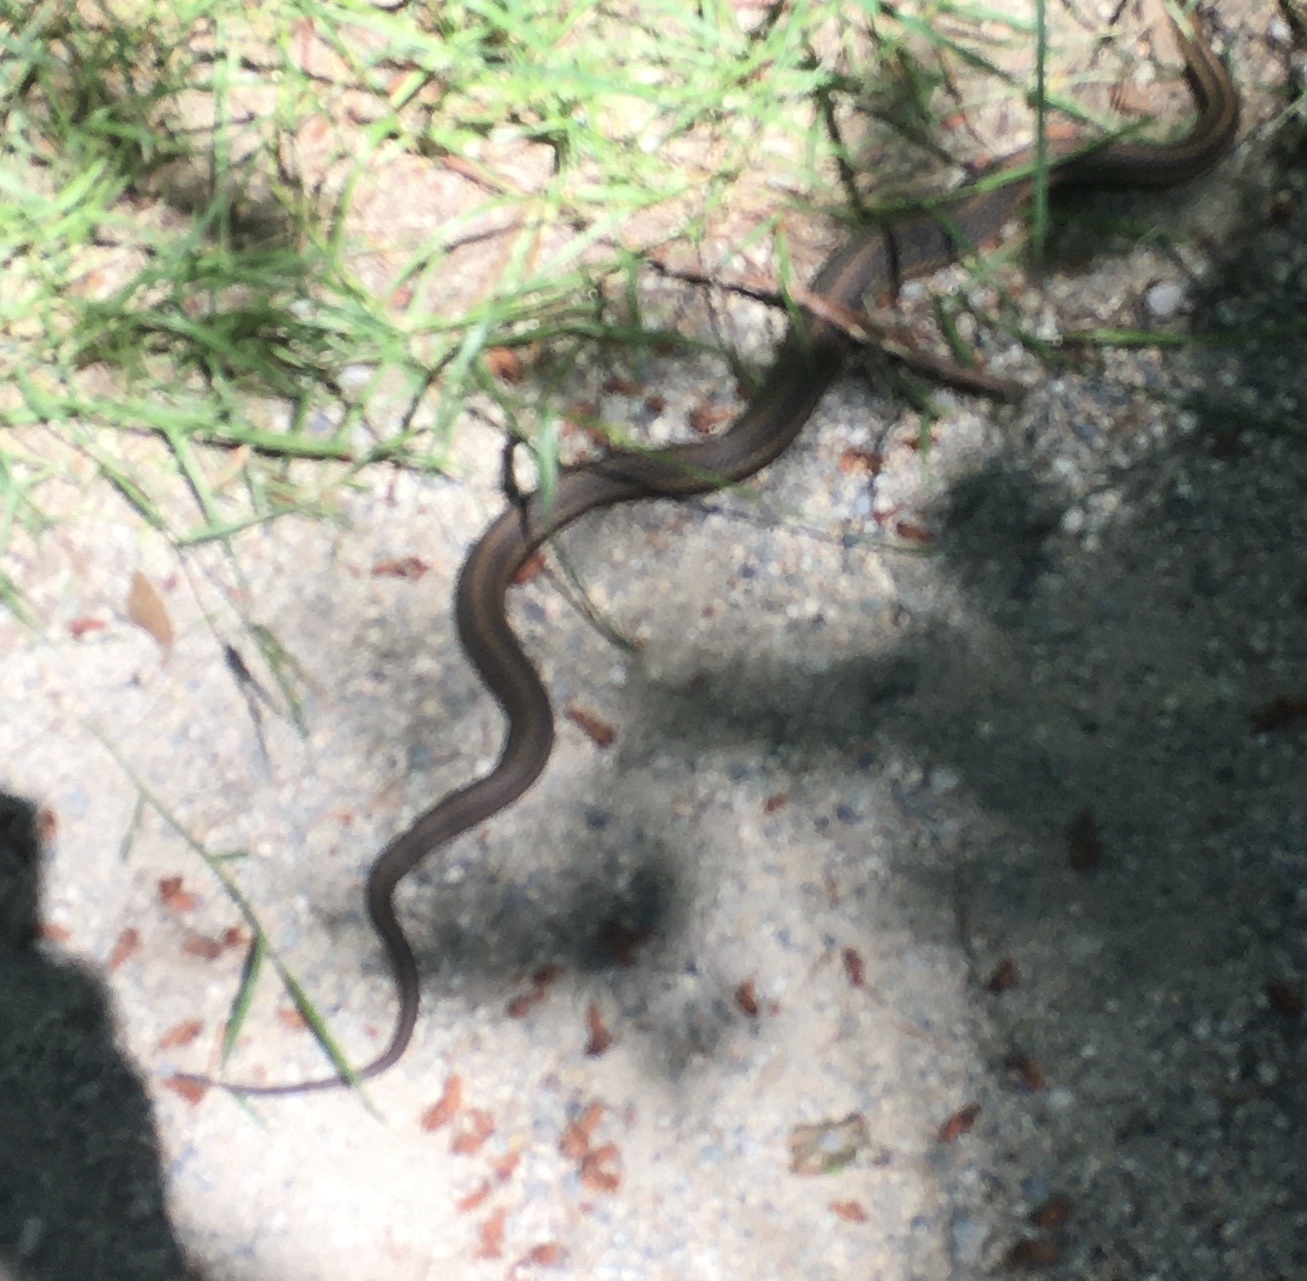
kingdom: Animalia
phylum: Chordata
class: Squamata
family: Colubridae
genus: Thamnophis
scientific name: Thamnophis ordinoides
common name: Northwestern garter snake
